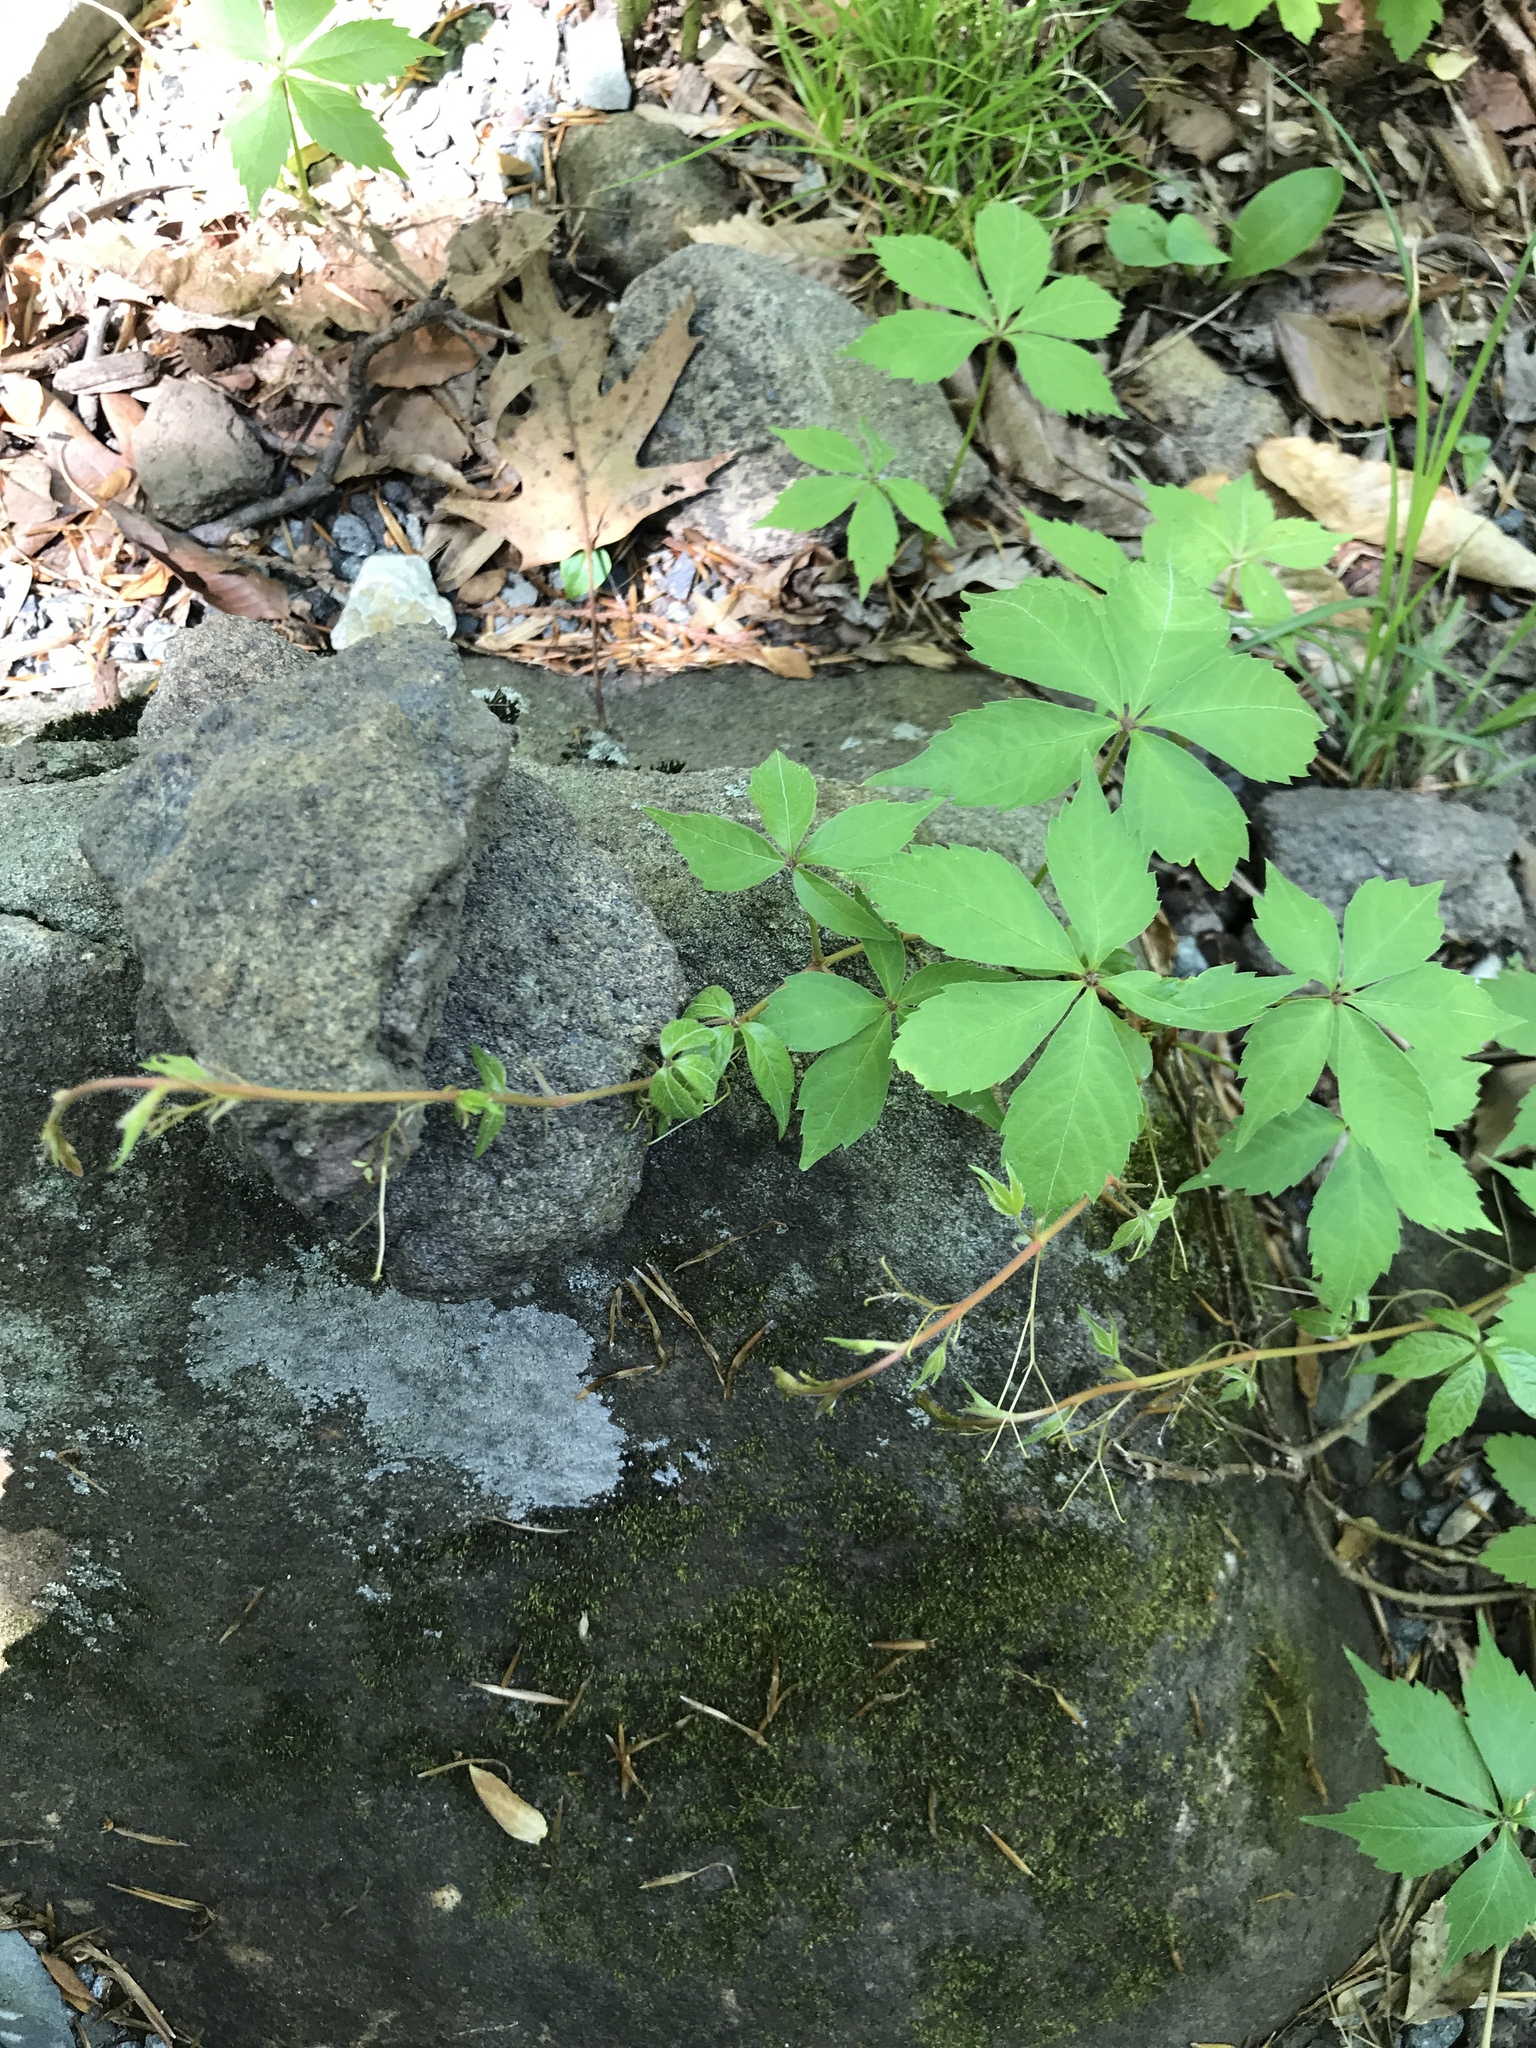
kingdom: Plantae
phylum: Tracheophyta
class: Magnoliopsida
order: Vitales
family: Vitaceae
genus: Parthenocissus
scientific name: Parthenocissus quinquefolia
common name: Virginia-creeper
